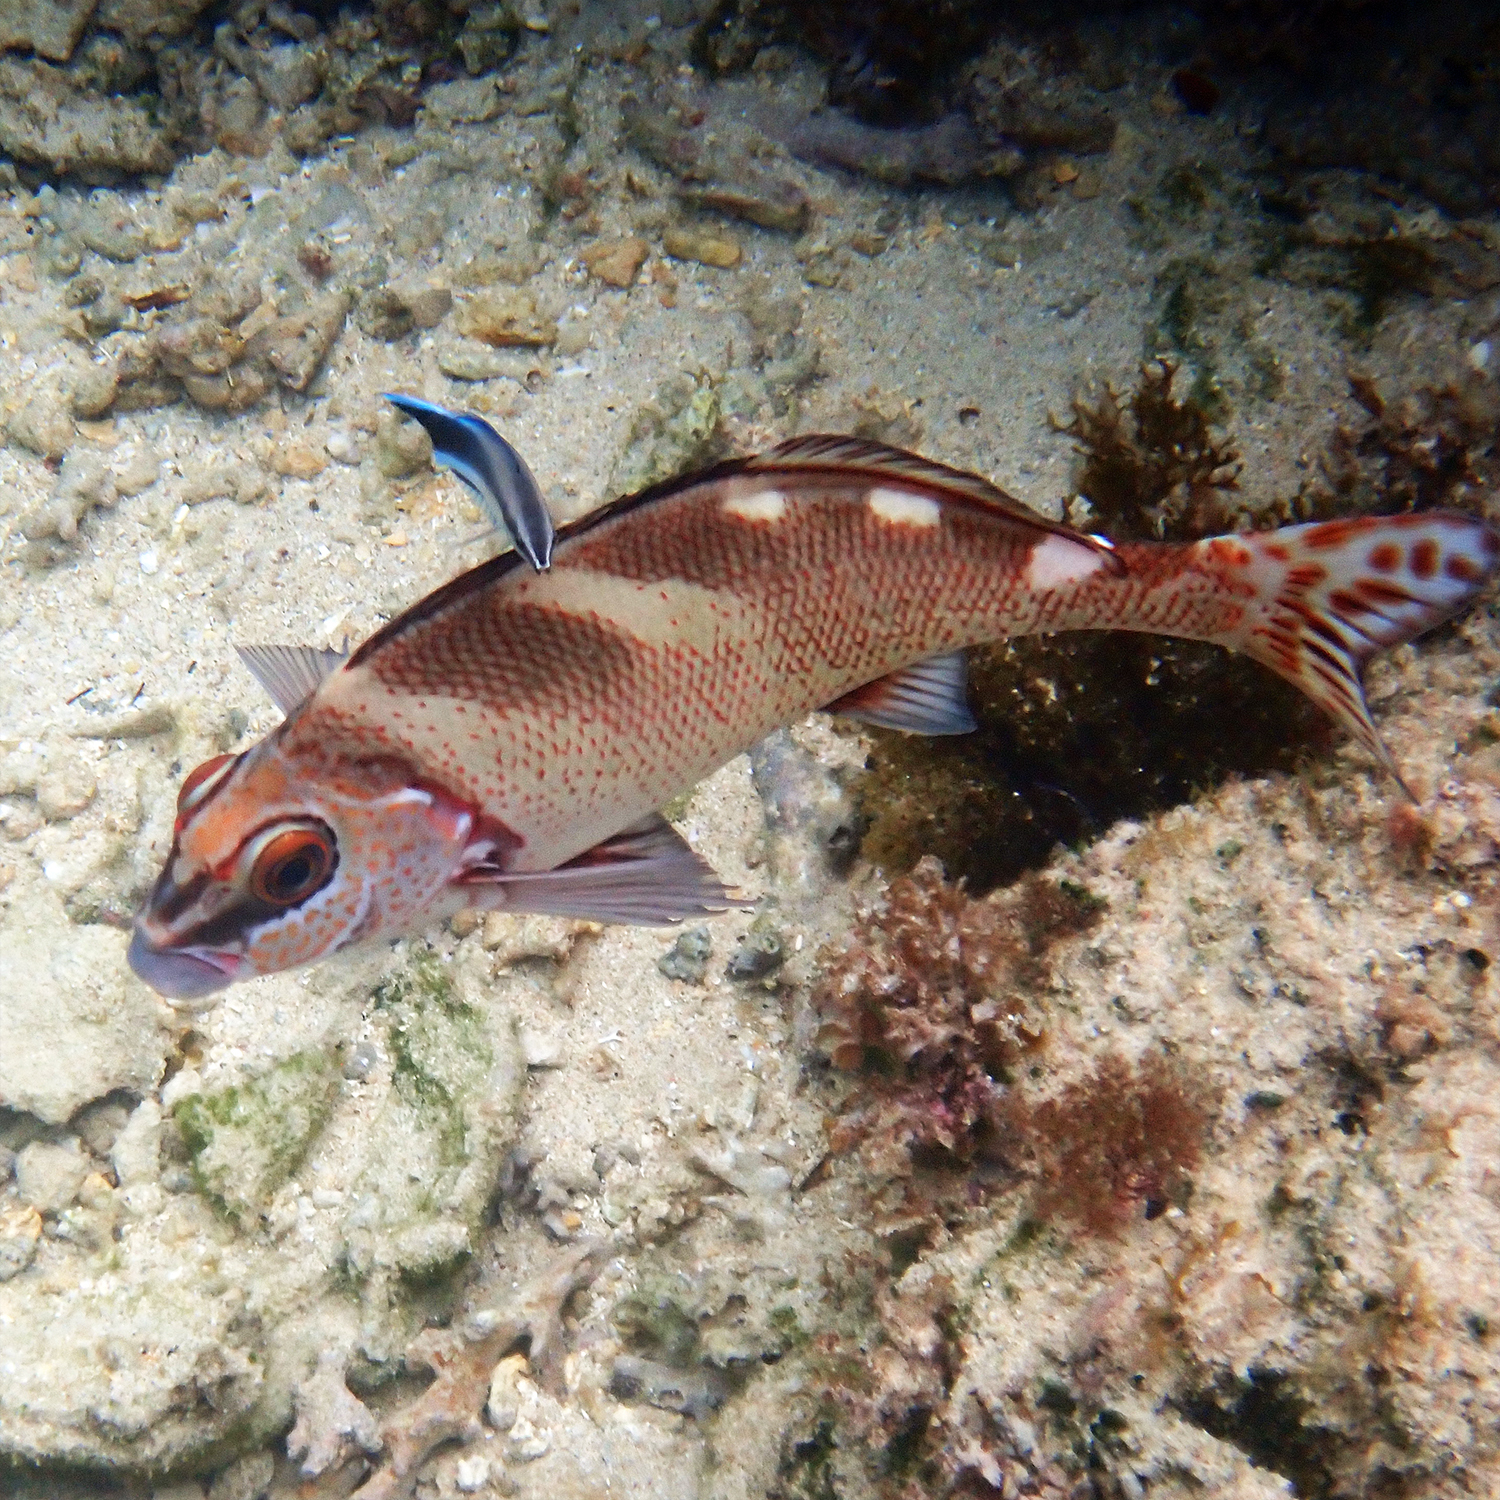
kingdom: Animalia
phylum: Chordata
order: Perciformes
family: Latridae
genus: Morwong
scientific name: Morwong ephippium
